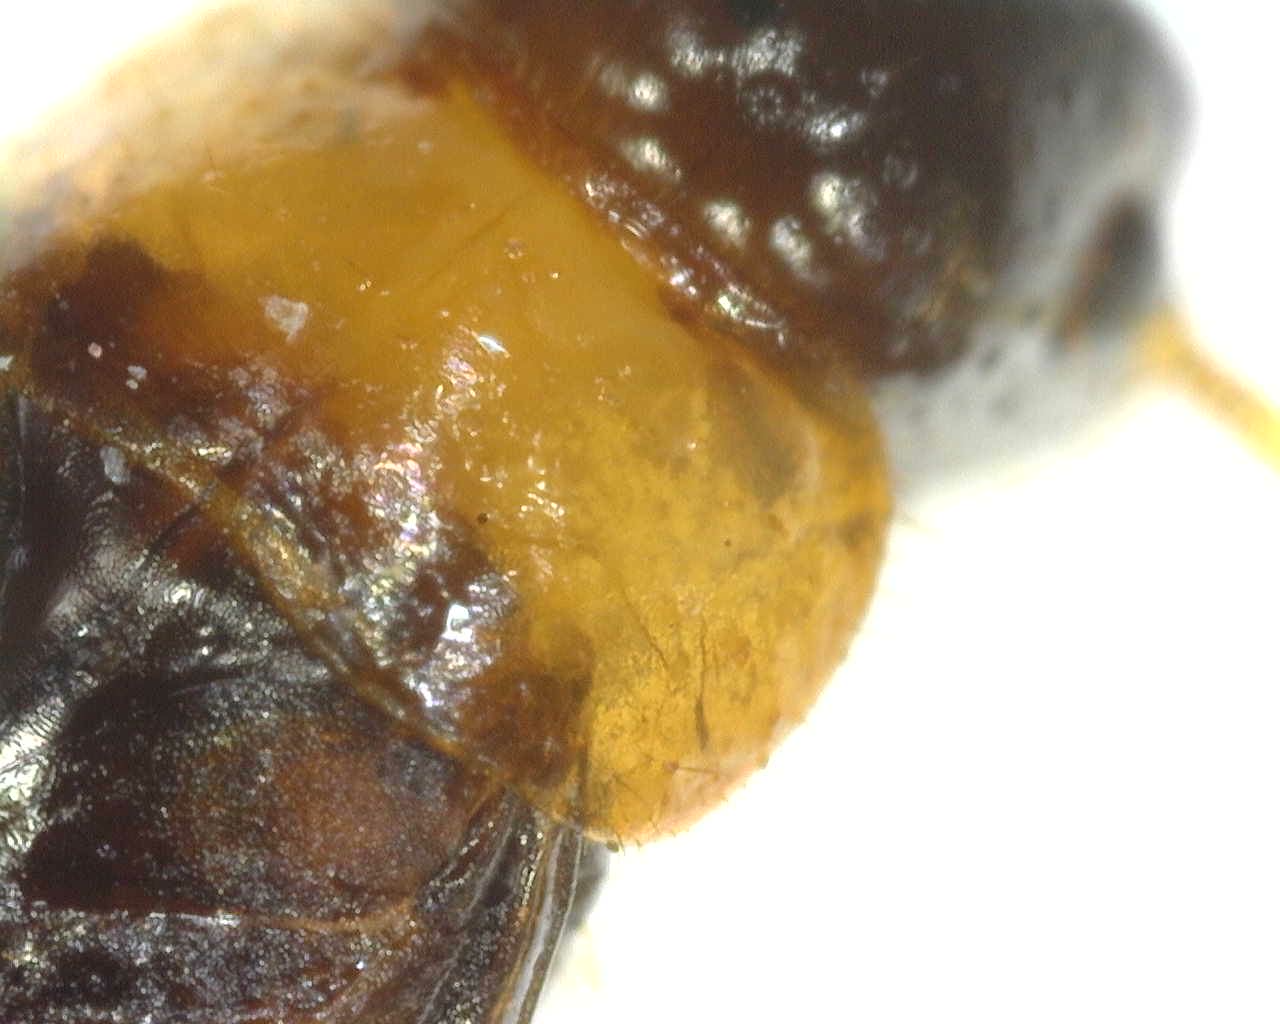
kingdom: Animalia
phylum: Arthropoda
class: Insecta
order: Blattodea
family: Kalotermitidae
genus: Kalotermes
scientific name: Kalotermes flavicollis
